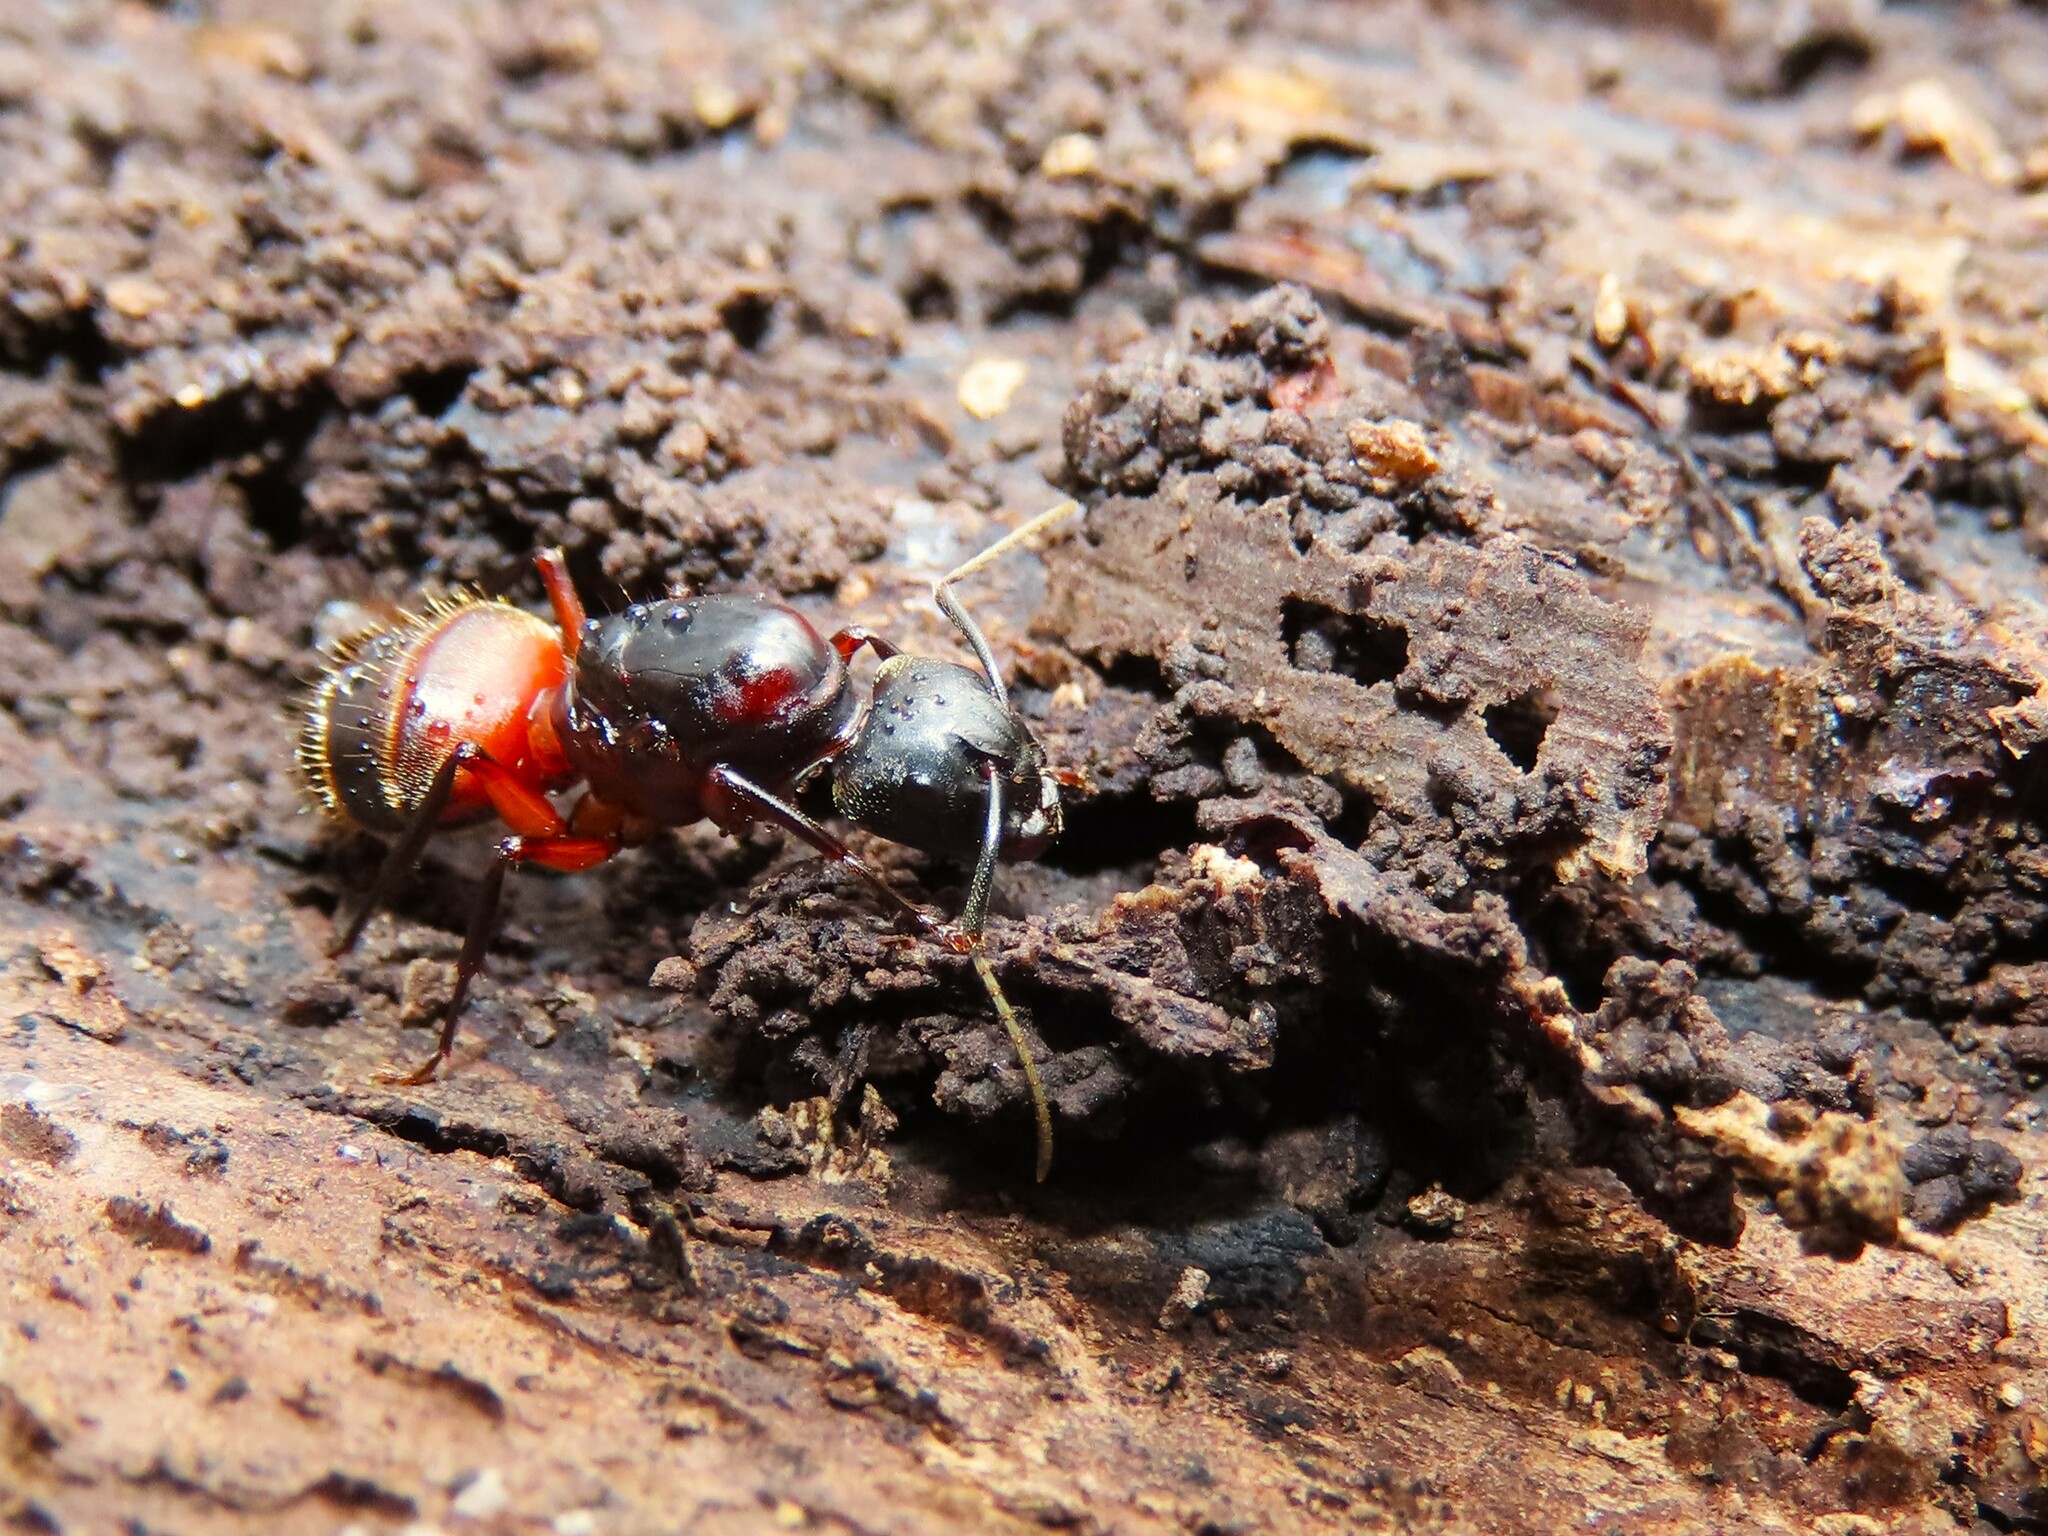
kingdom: Animalia
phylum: Arthropoda
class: Insecta
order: Hymenoptera
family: Formicidae
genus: Camponotus
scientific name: Camponotus chromaiodes
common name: Red carpenter ant
